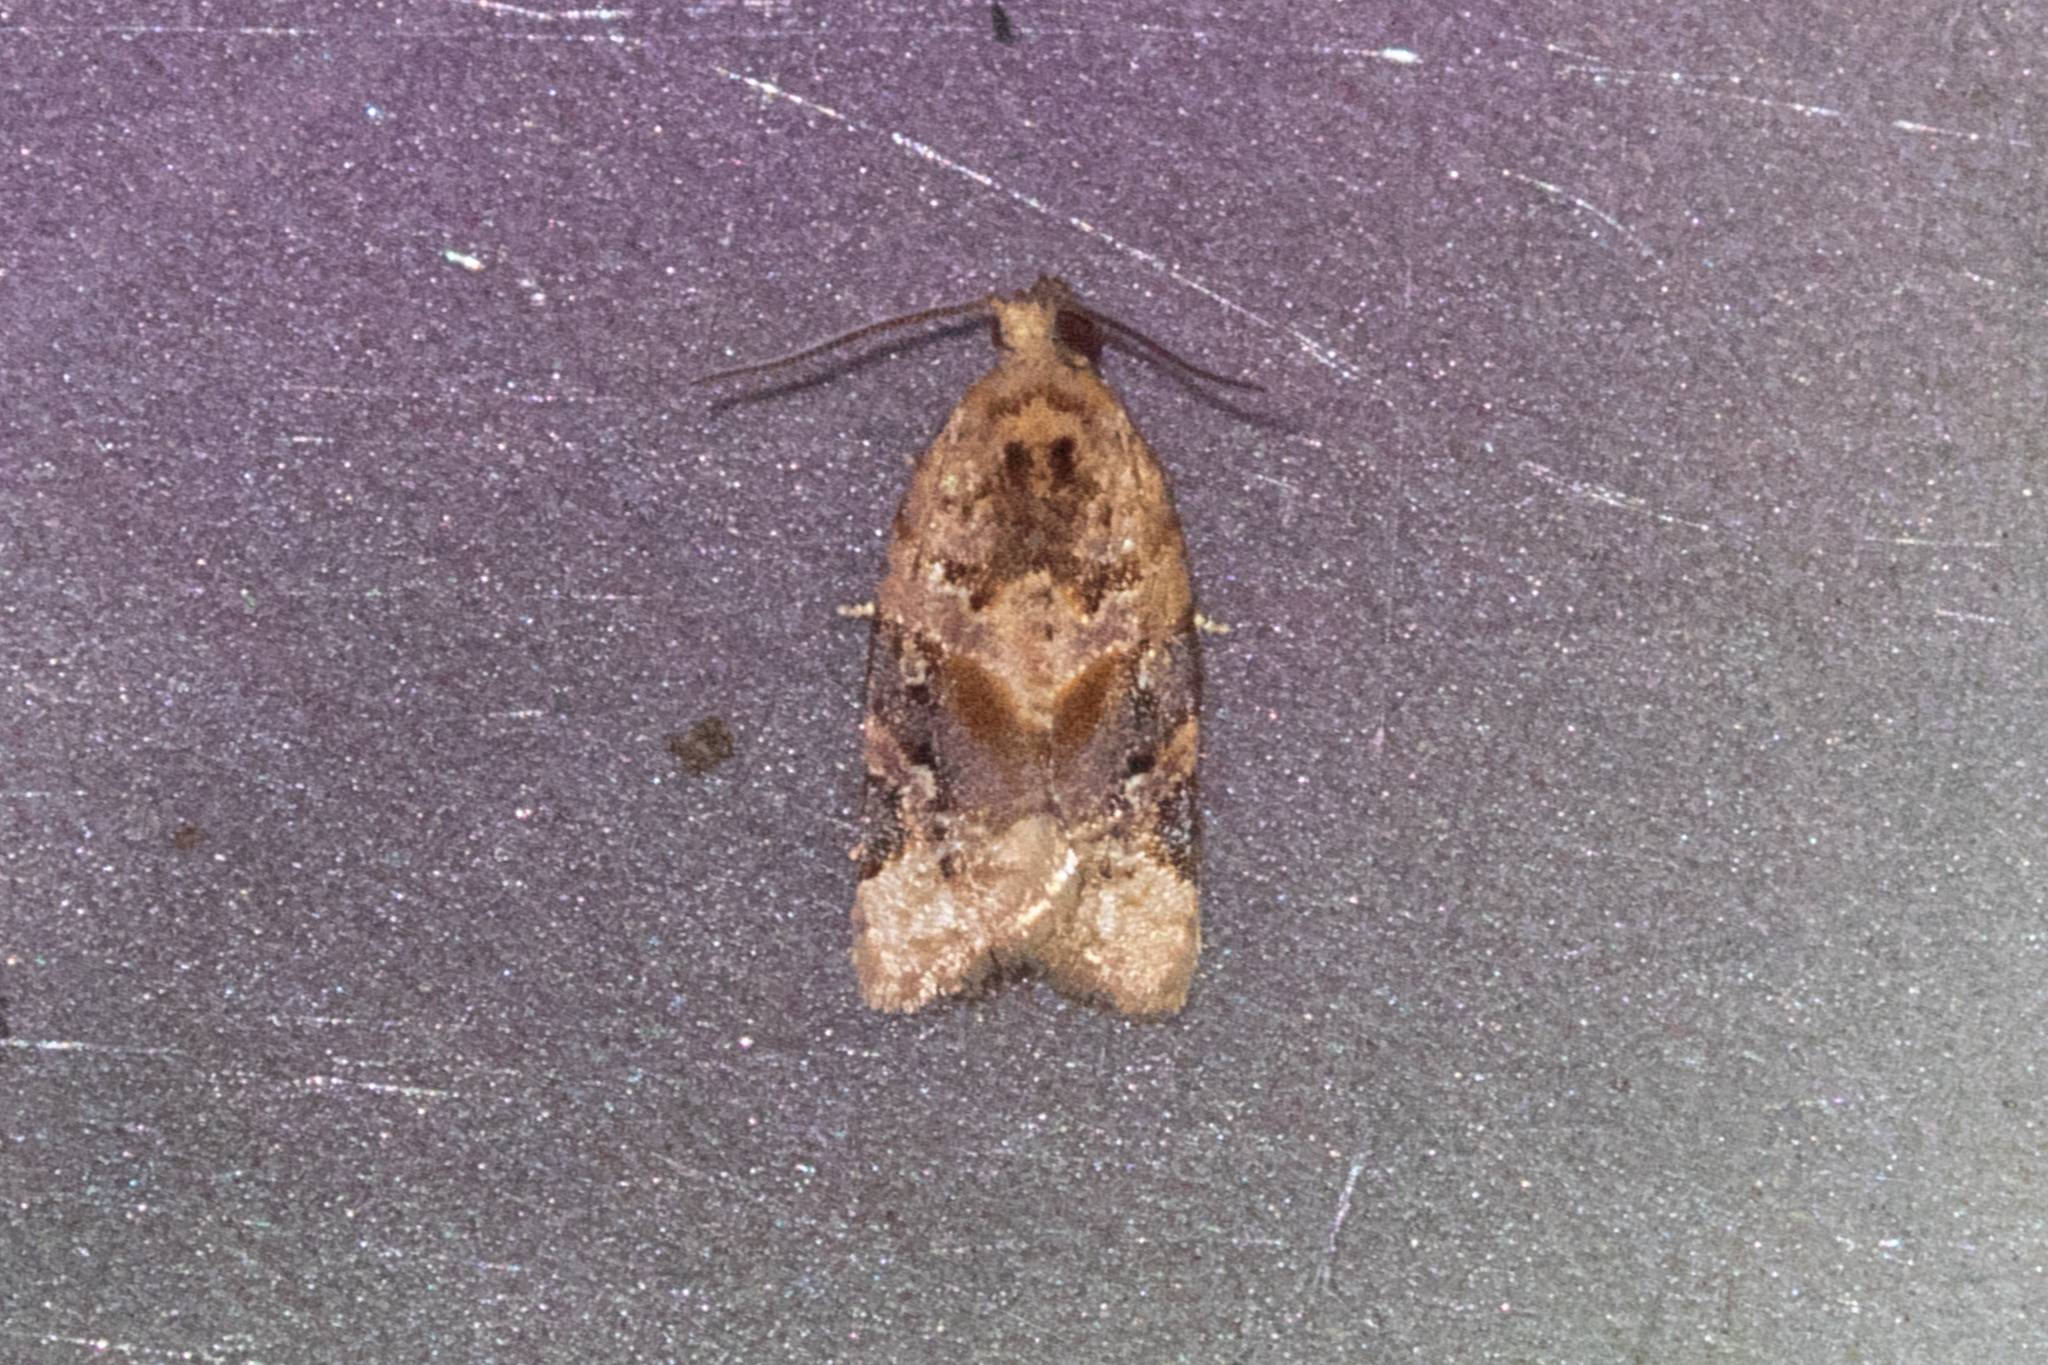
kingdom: Animalia
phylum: Arthropoda
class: Insecta
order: Lepidoptera
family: Tortricidae
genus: Argyrotaenia
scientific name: Argyrotaenia velutinana
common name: Red-banded leafroller moth
